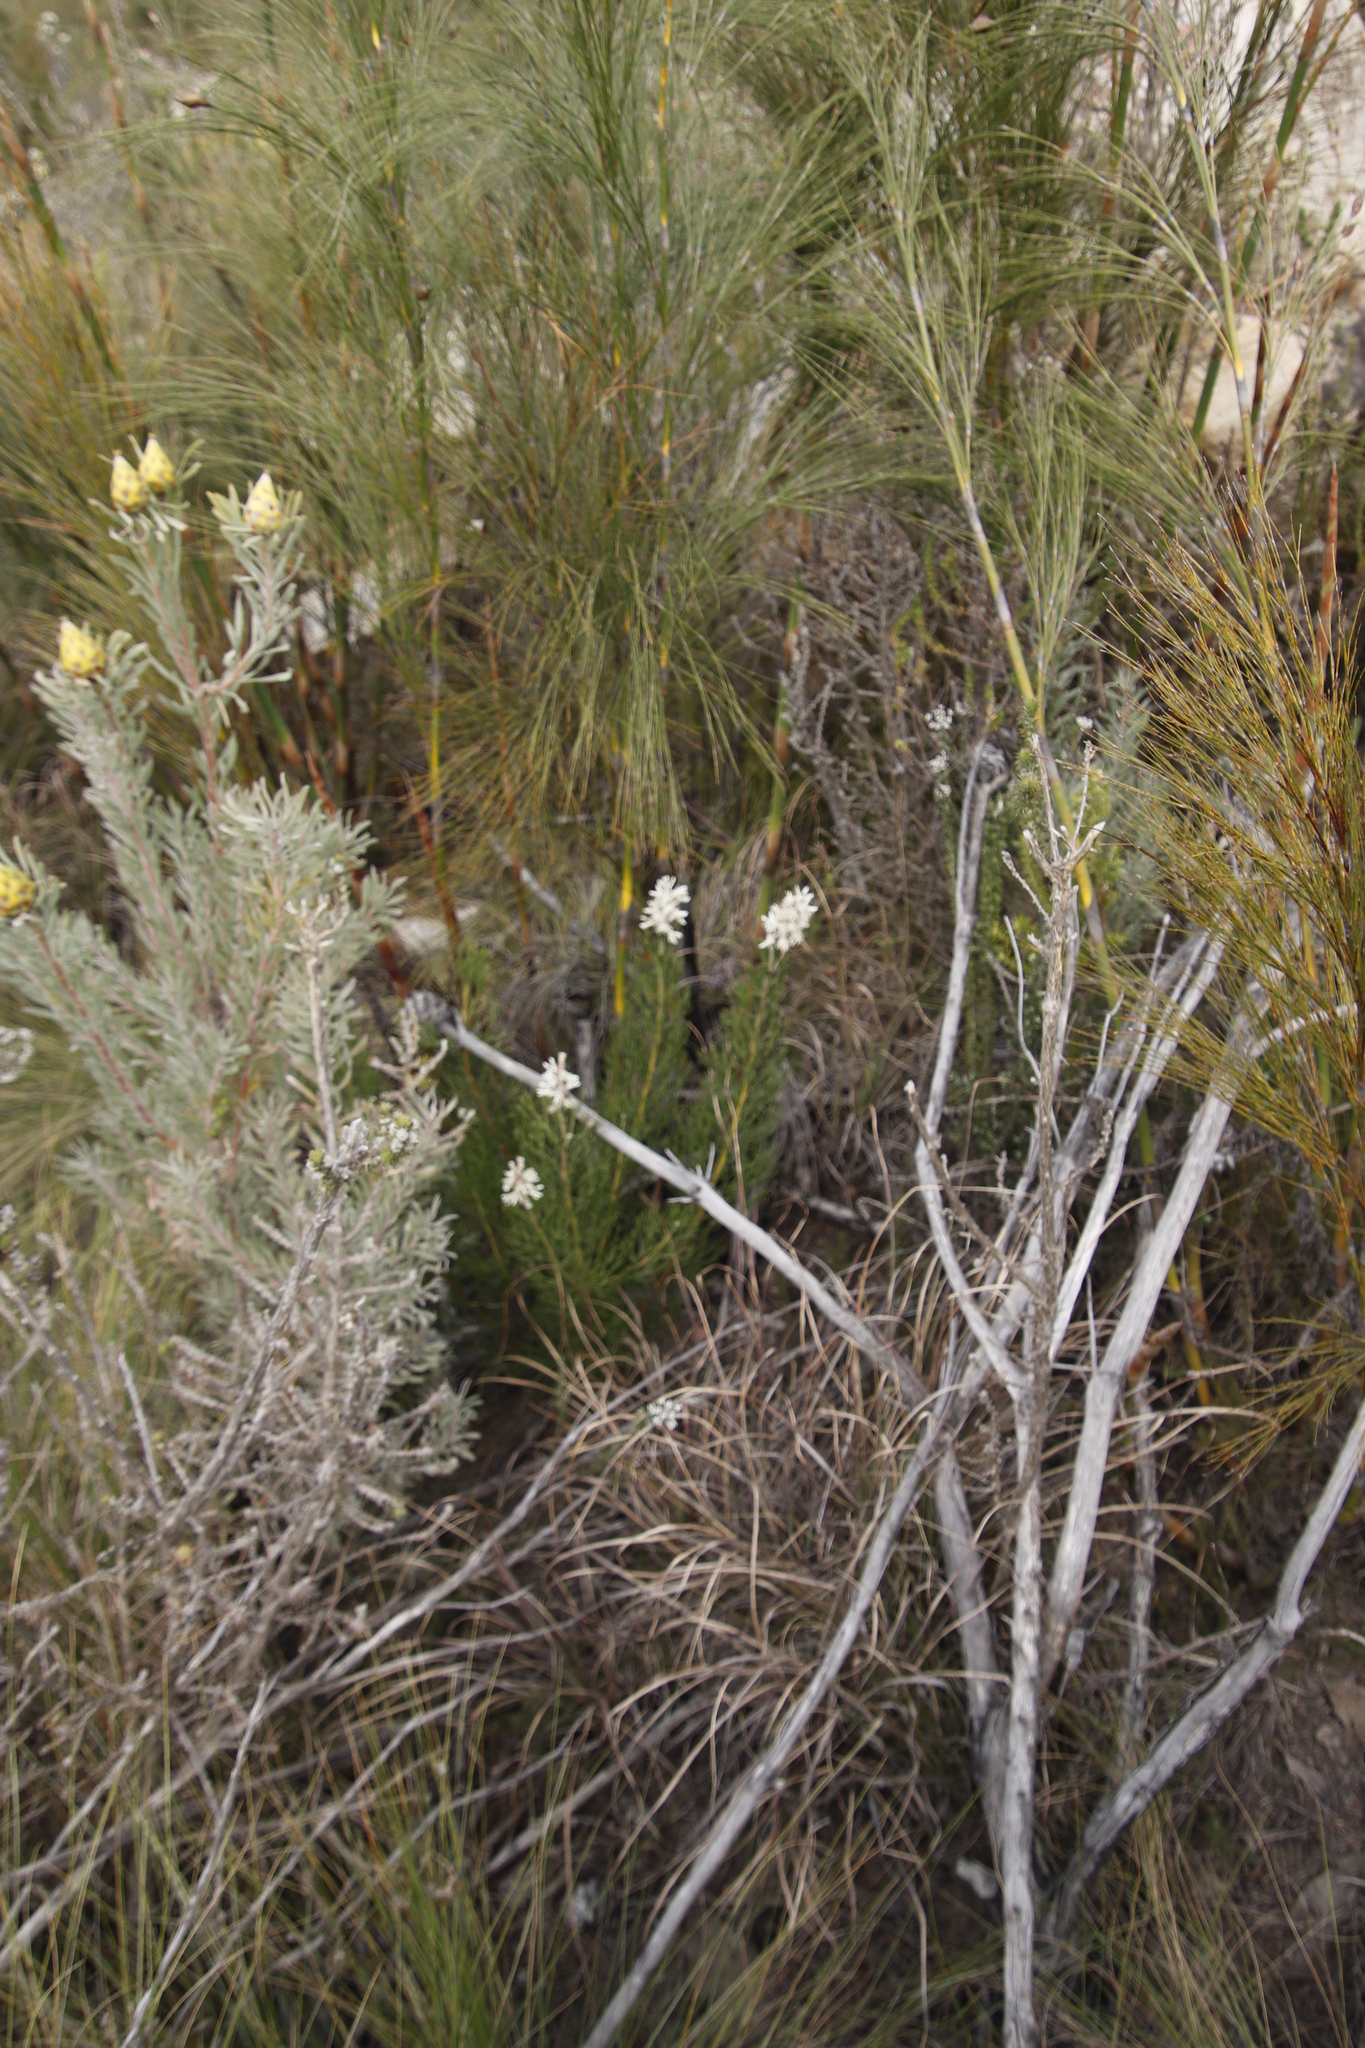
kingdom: Plantae
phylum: Tracheophyta
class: Magnoliopsida
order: Proteales
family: Proteaceae
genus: Paranomus
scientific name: Paranomus dregei
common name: Scented sceptre
